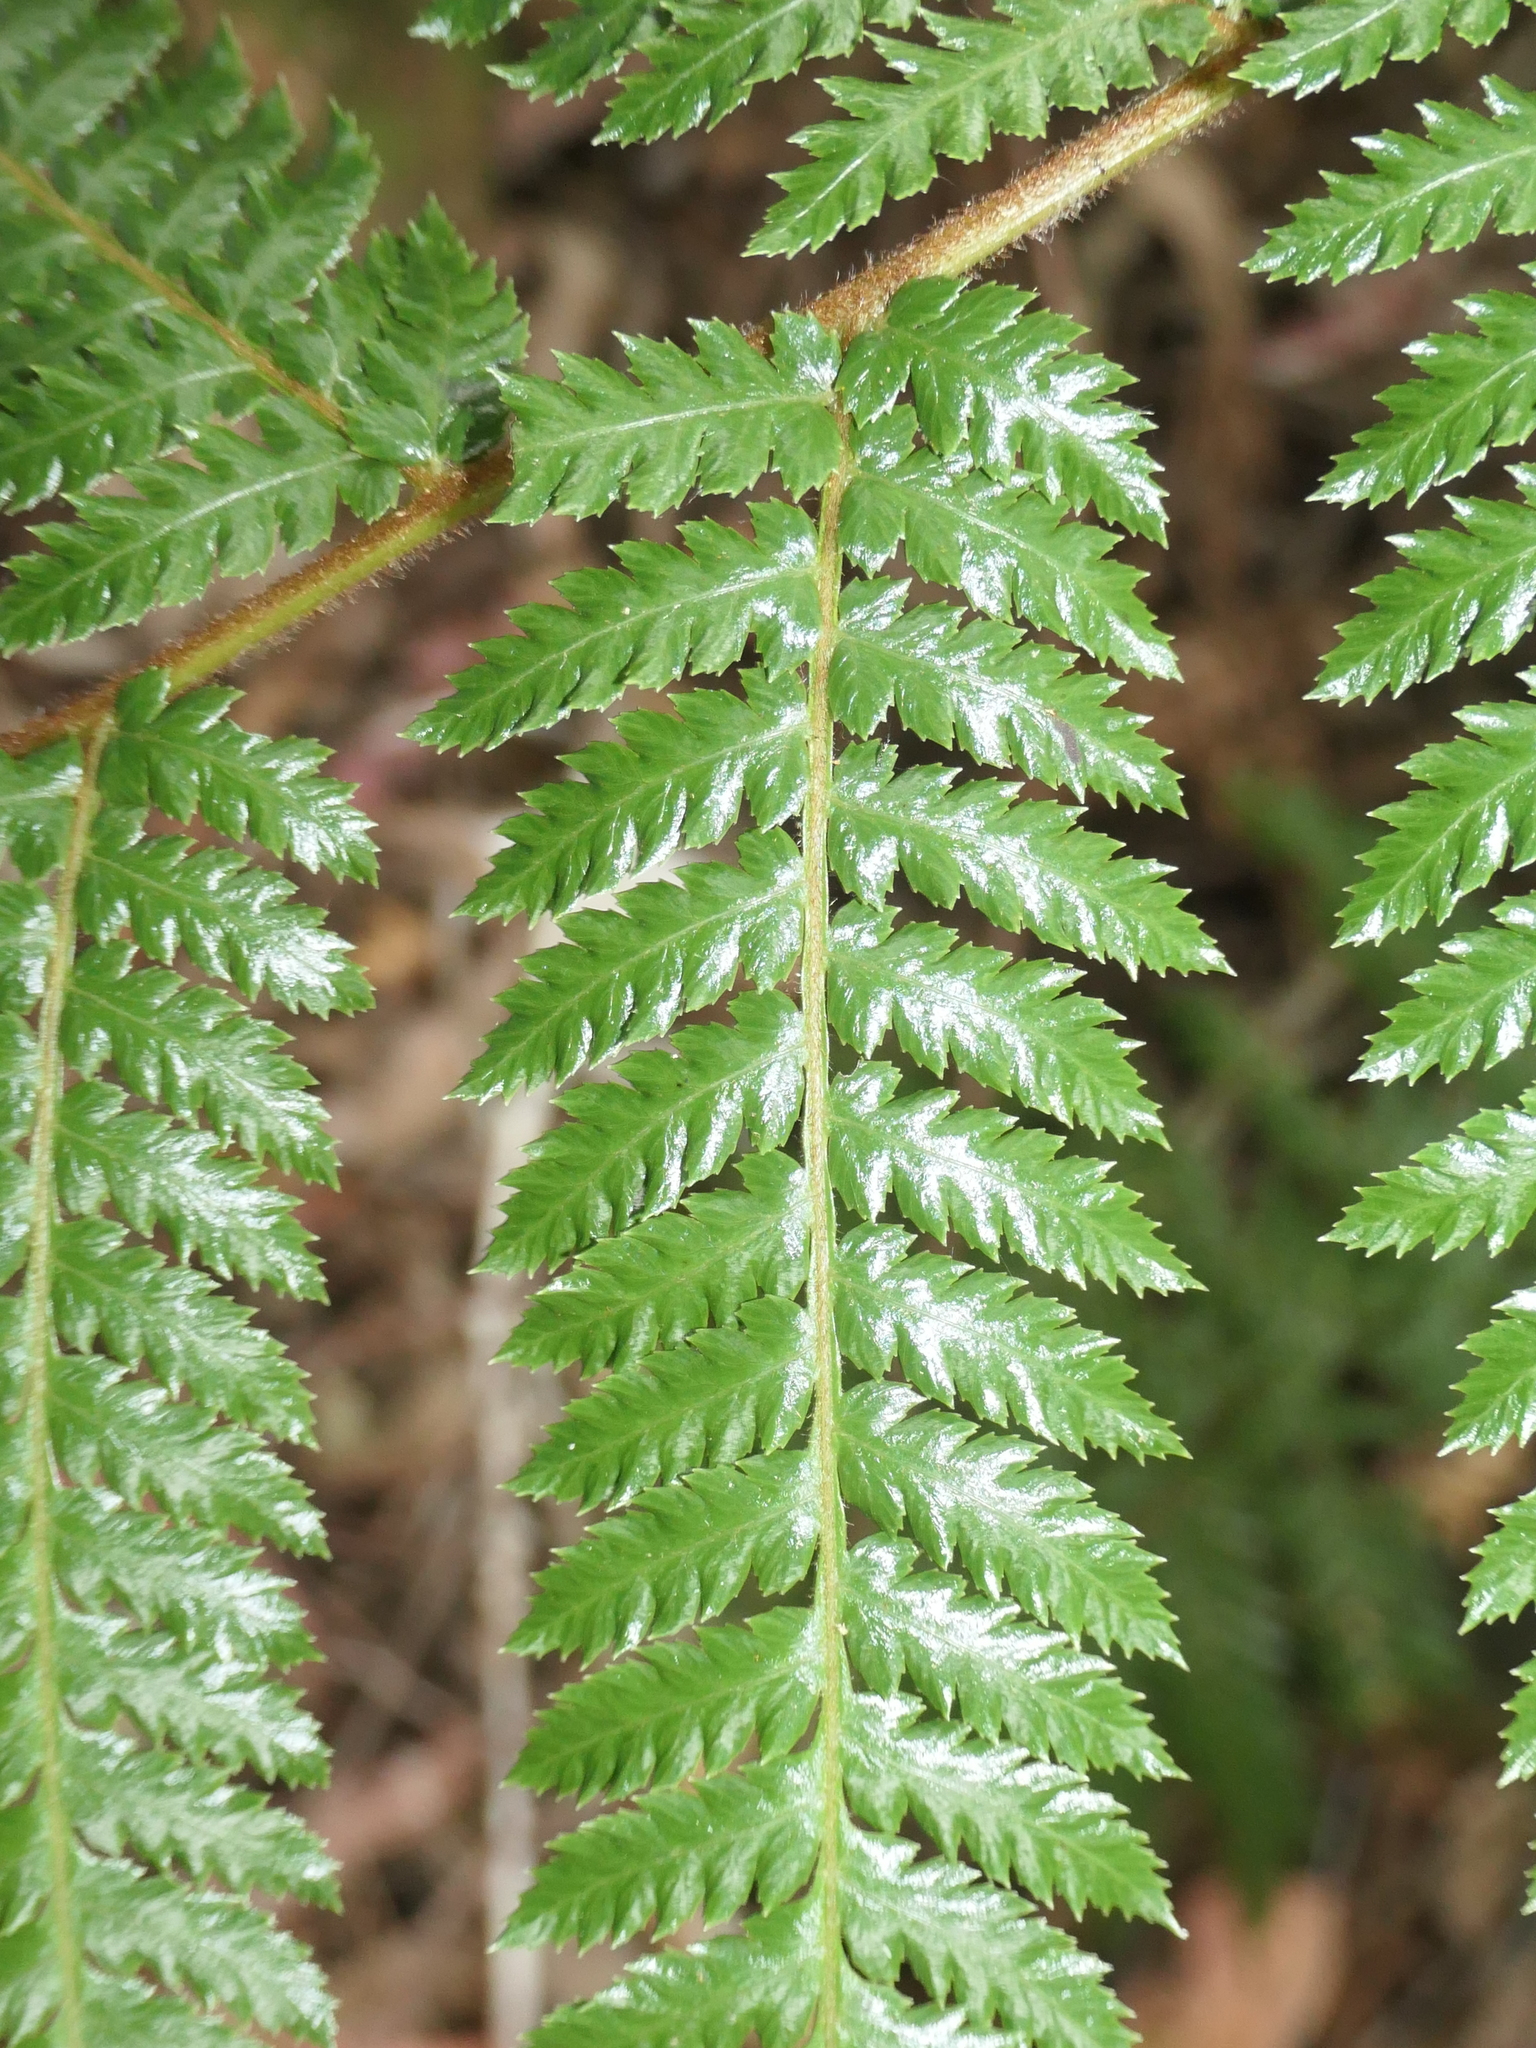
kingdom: Plantae
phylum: Tracheophyta
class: Polypodiopsida
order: Cyatheales
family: Dicksoniaceae
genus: Dicksonia
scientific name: Dicksonia fibrosa
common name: Golden tree fern
